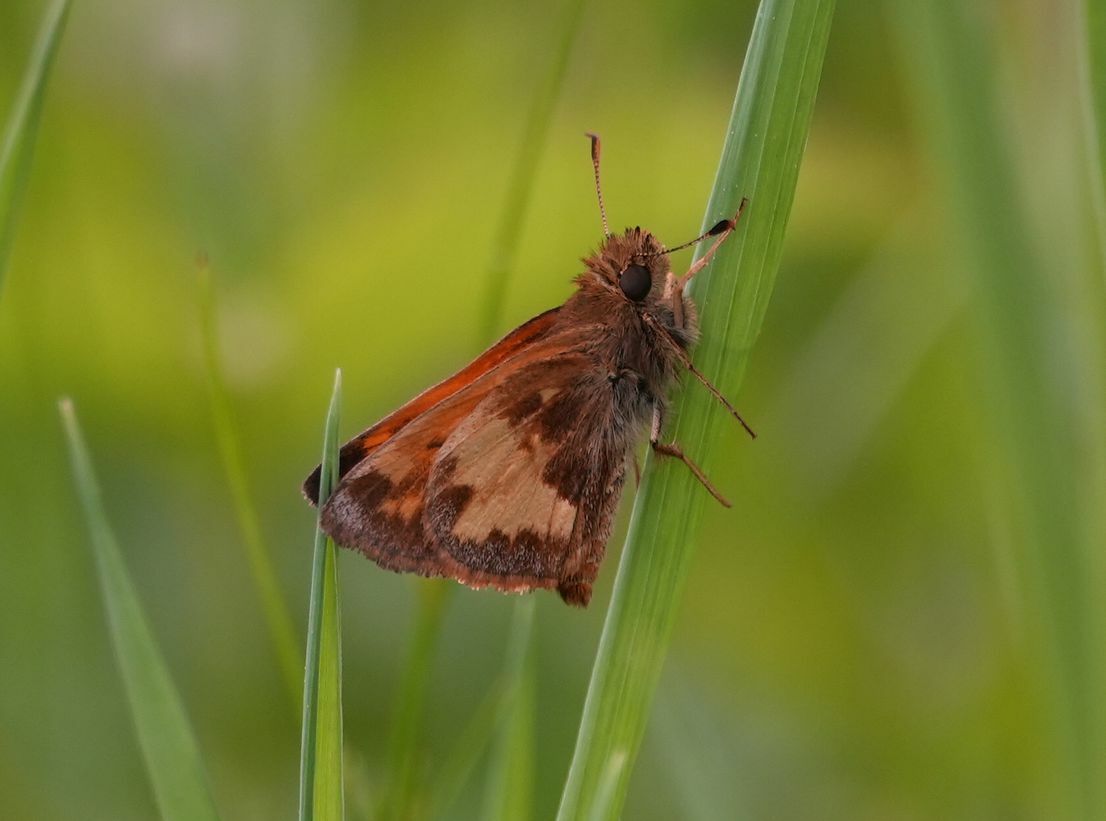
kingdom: Animalia
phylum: Arthropoda
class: Insecta
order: Lepidoptera
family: Hesperiidae
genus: Lon
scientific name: Lon hobomok
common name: Hobomok skipper
